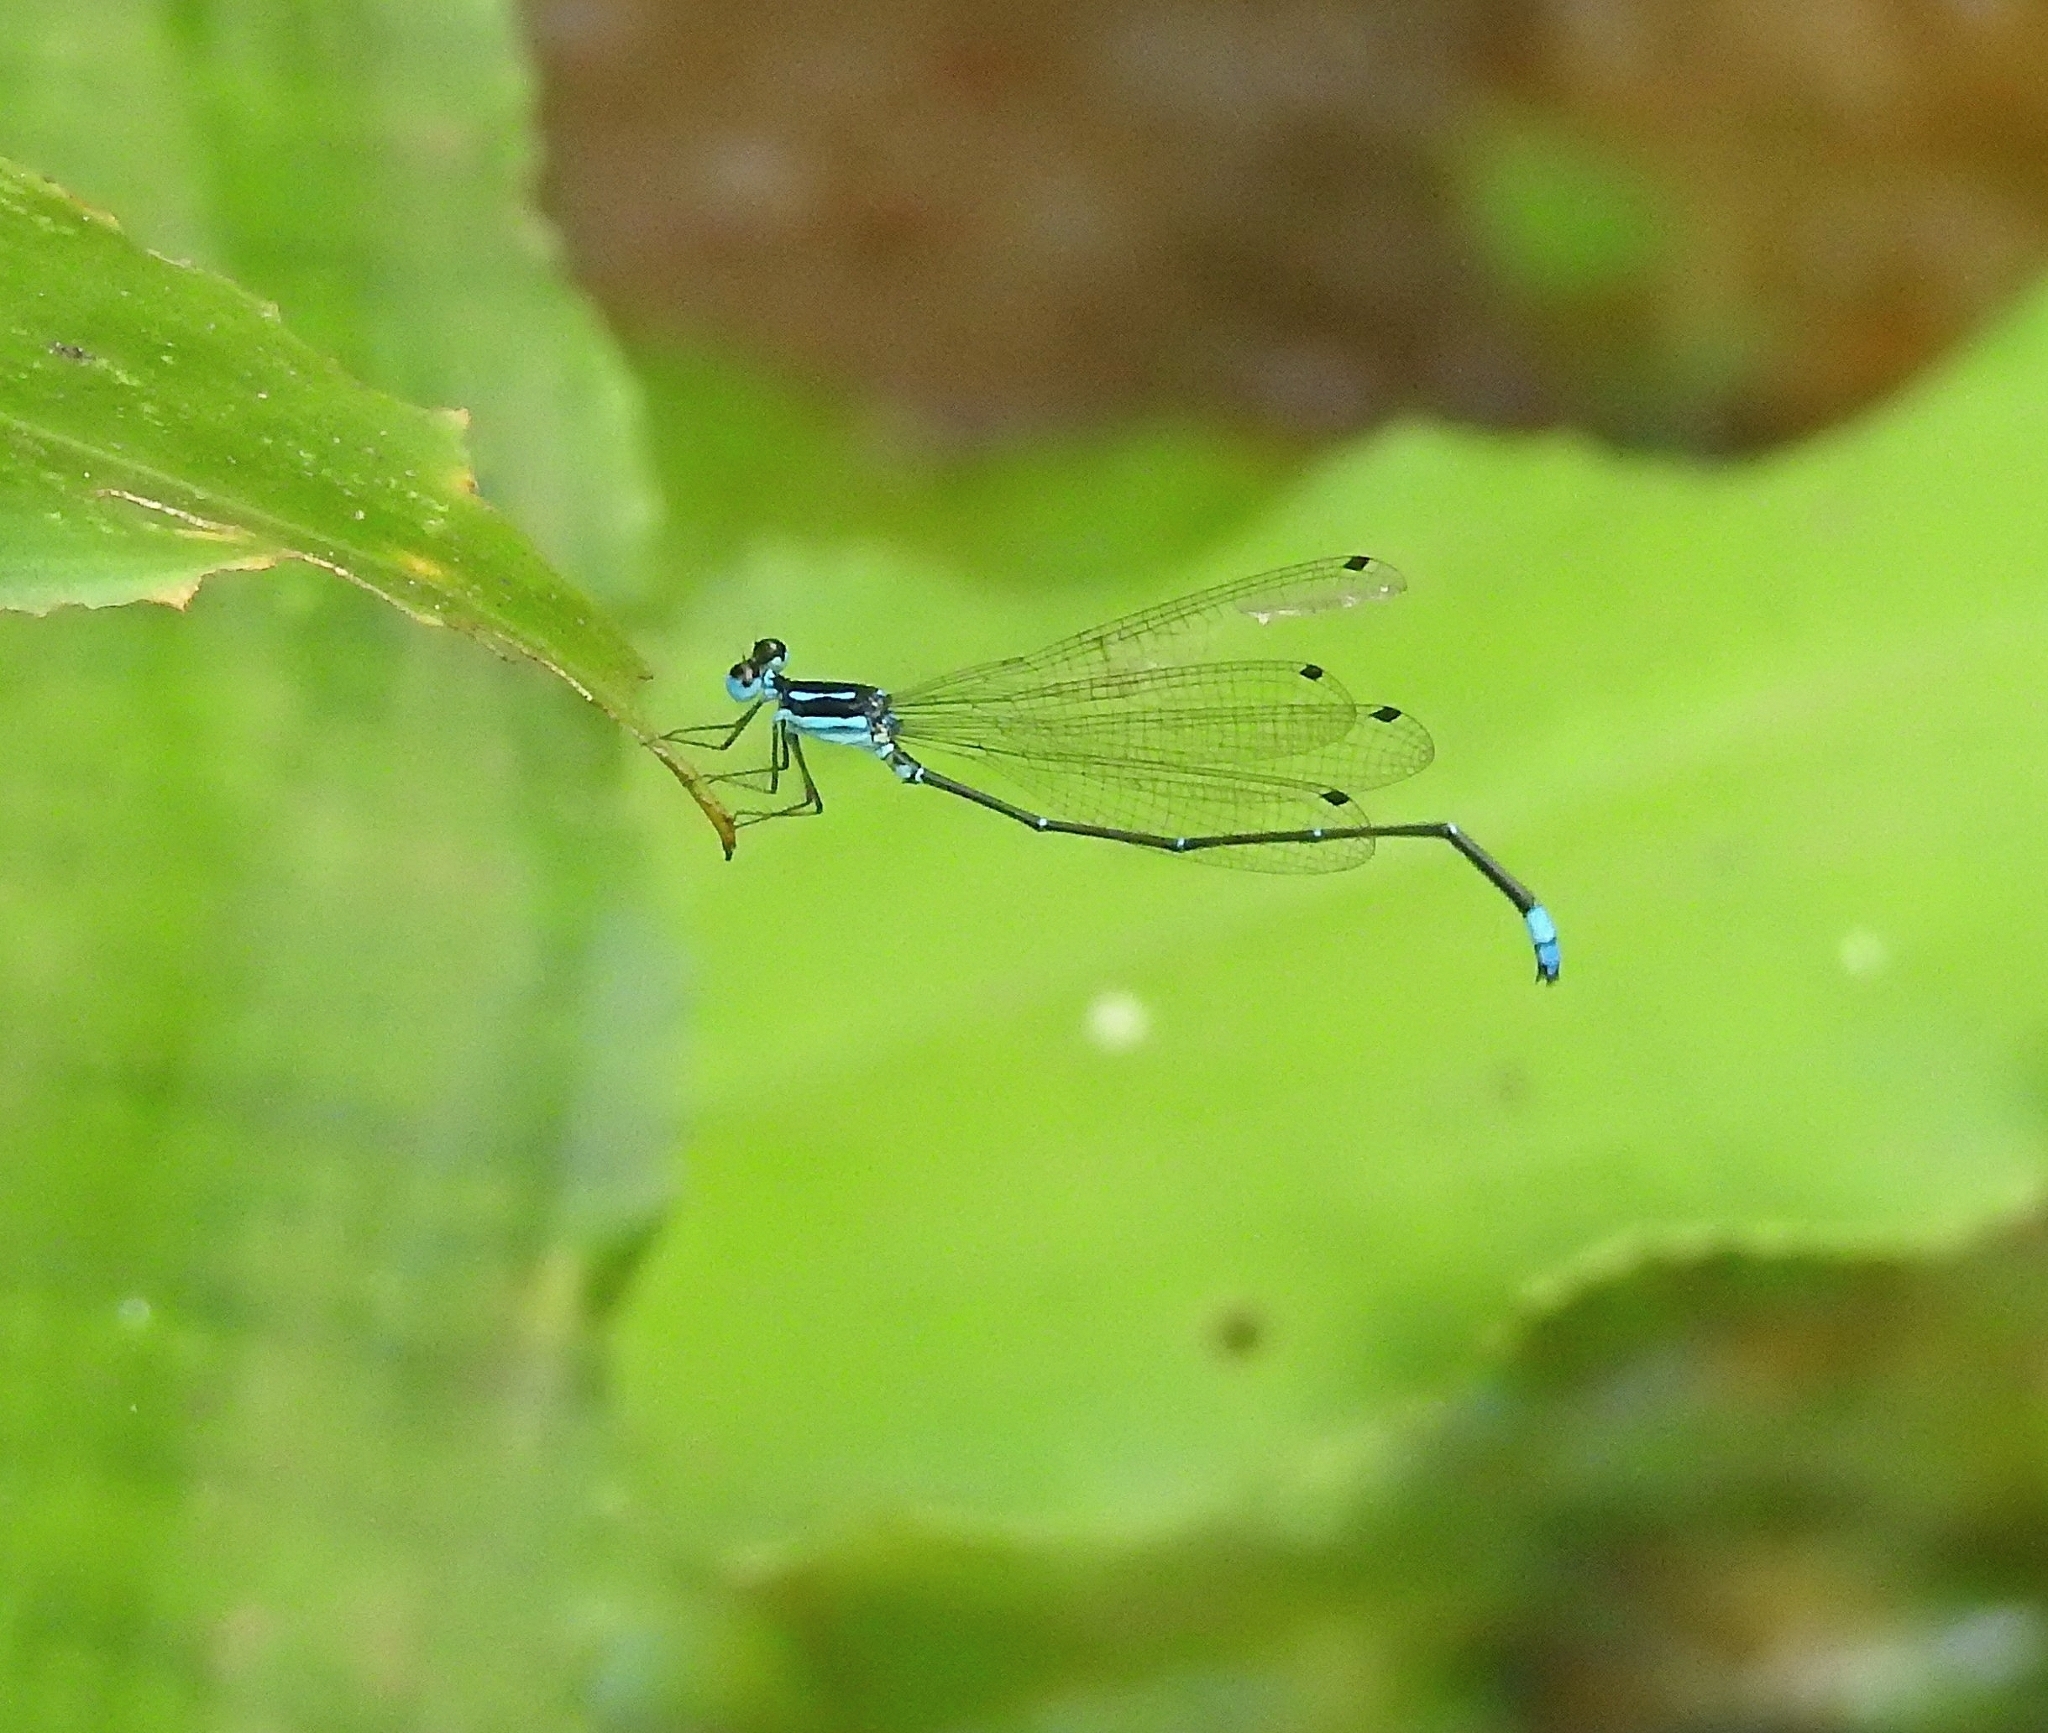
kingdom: Animalia
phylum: Arthropoda
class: Insecta
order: Odonata
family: Platycnemididae
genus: Caconeura
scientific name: Caconeura risi
